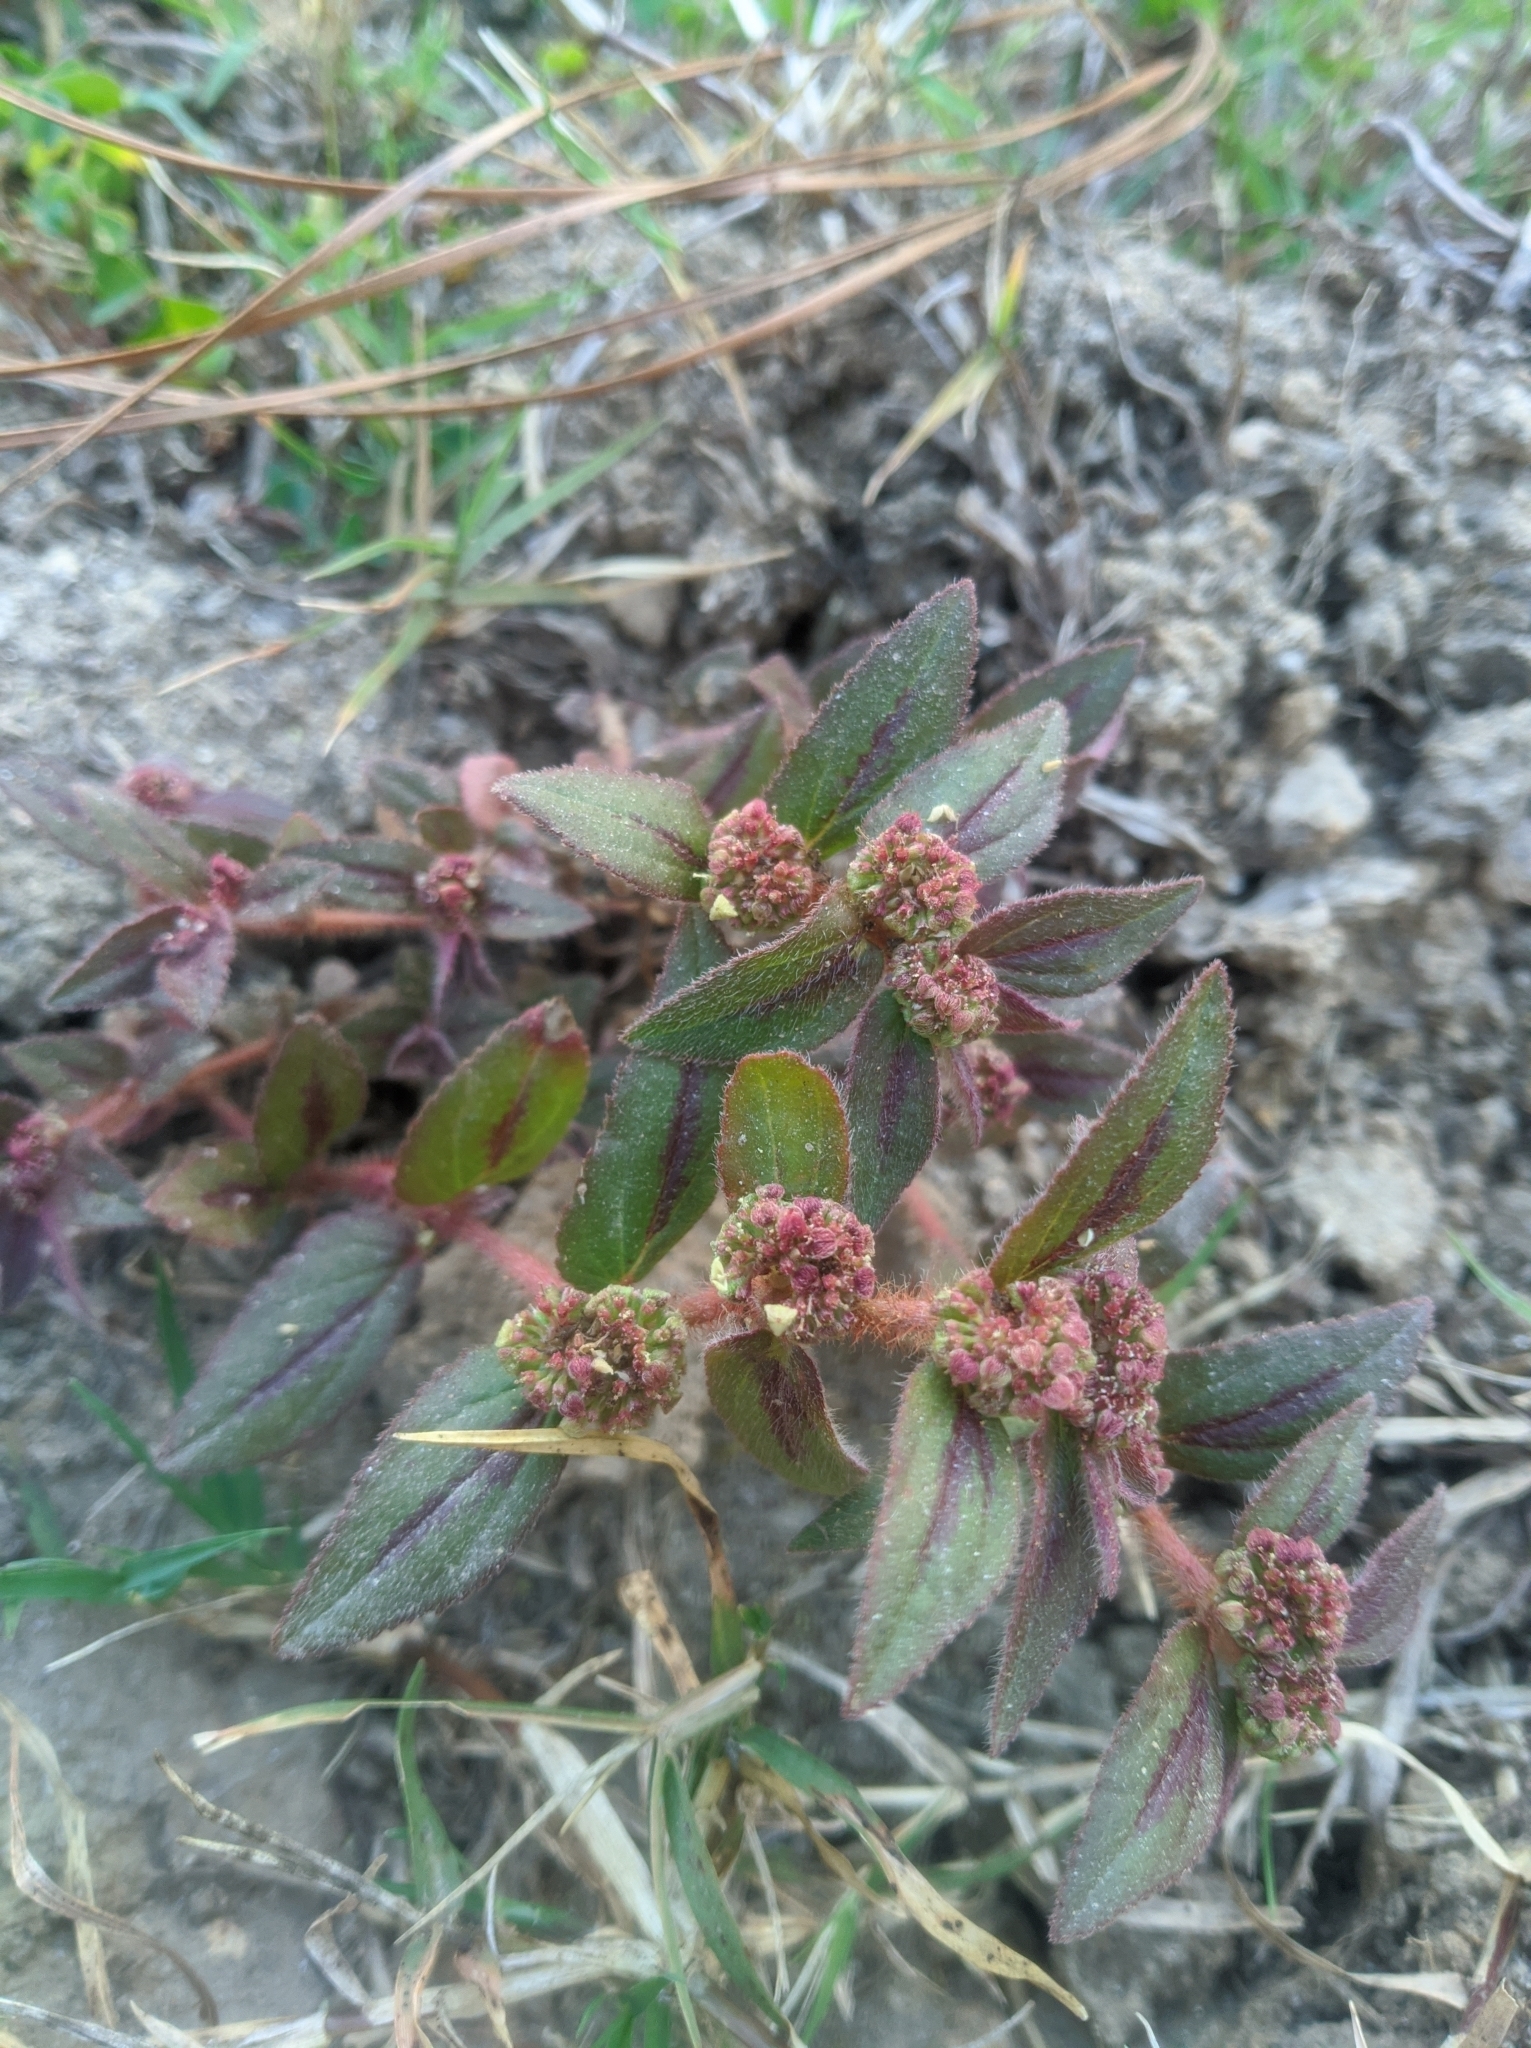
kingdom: Plantae
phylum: Tracheophyta
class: Magnoliopsida
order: Malpighiales
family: Euphorbiaceae
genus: Euphorbia
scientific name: Euphorbia hirta
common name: Pillpod sandmat
